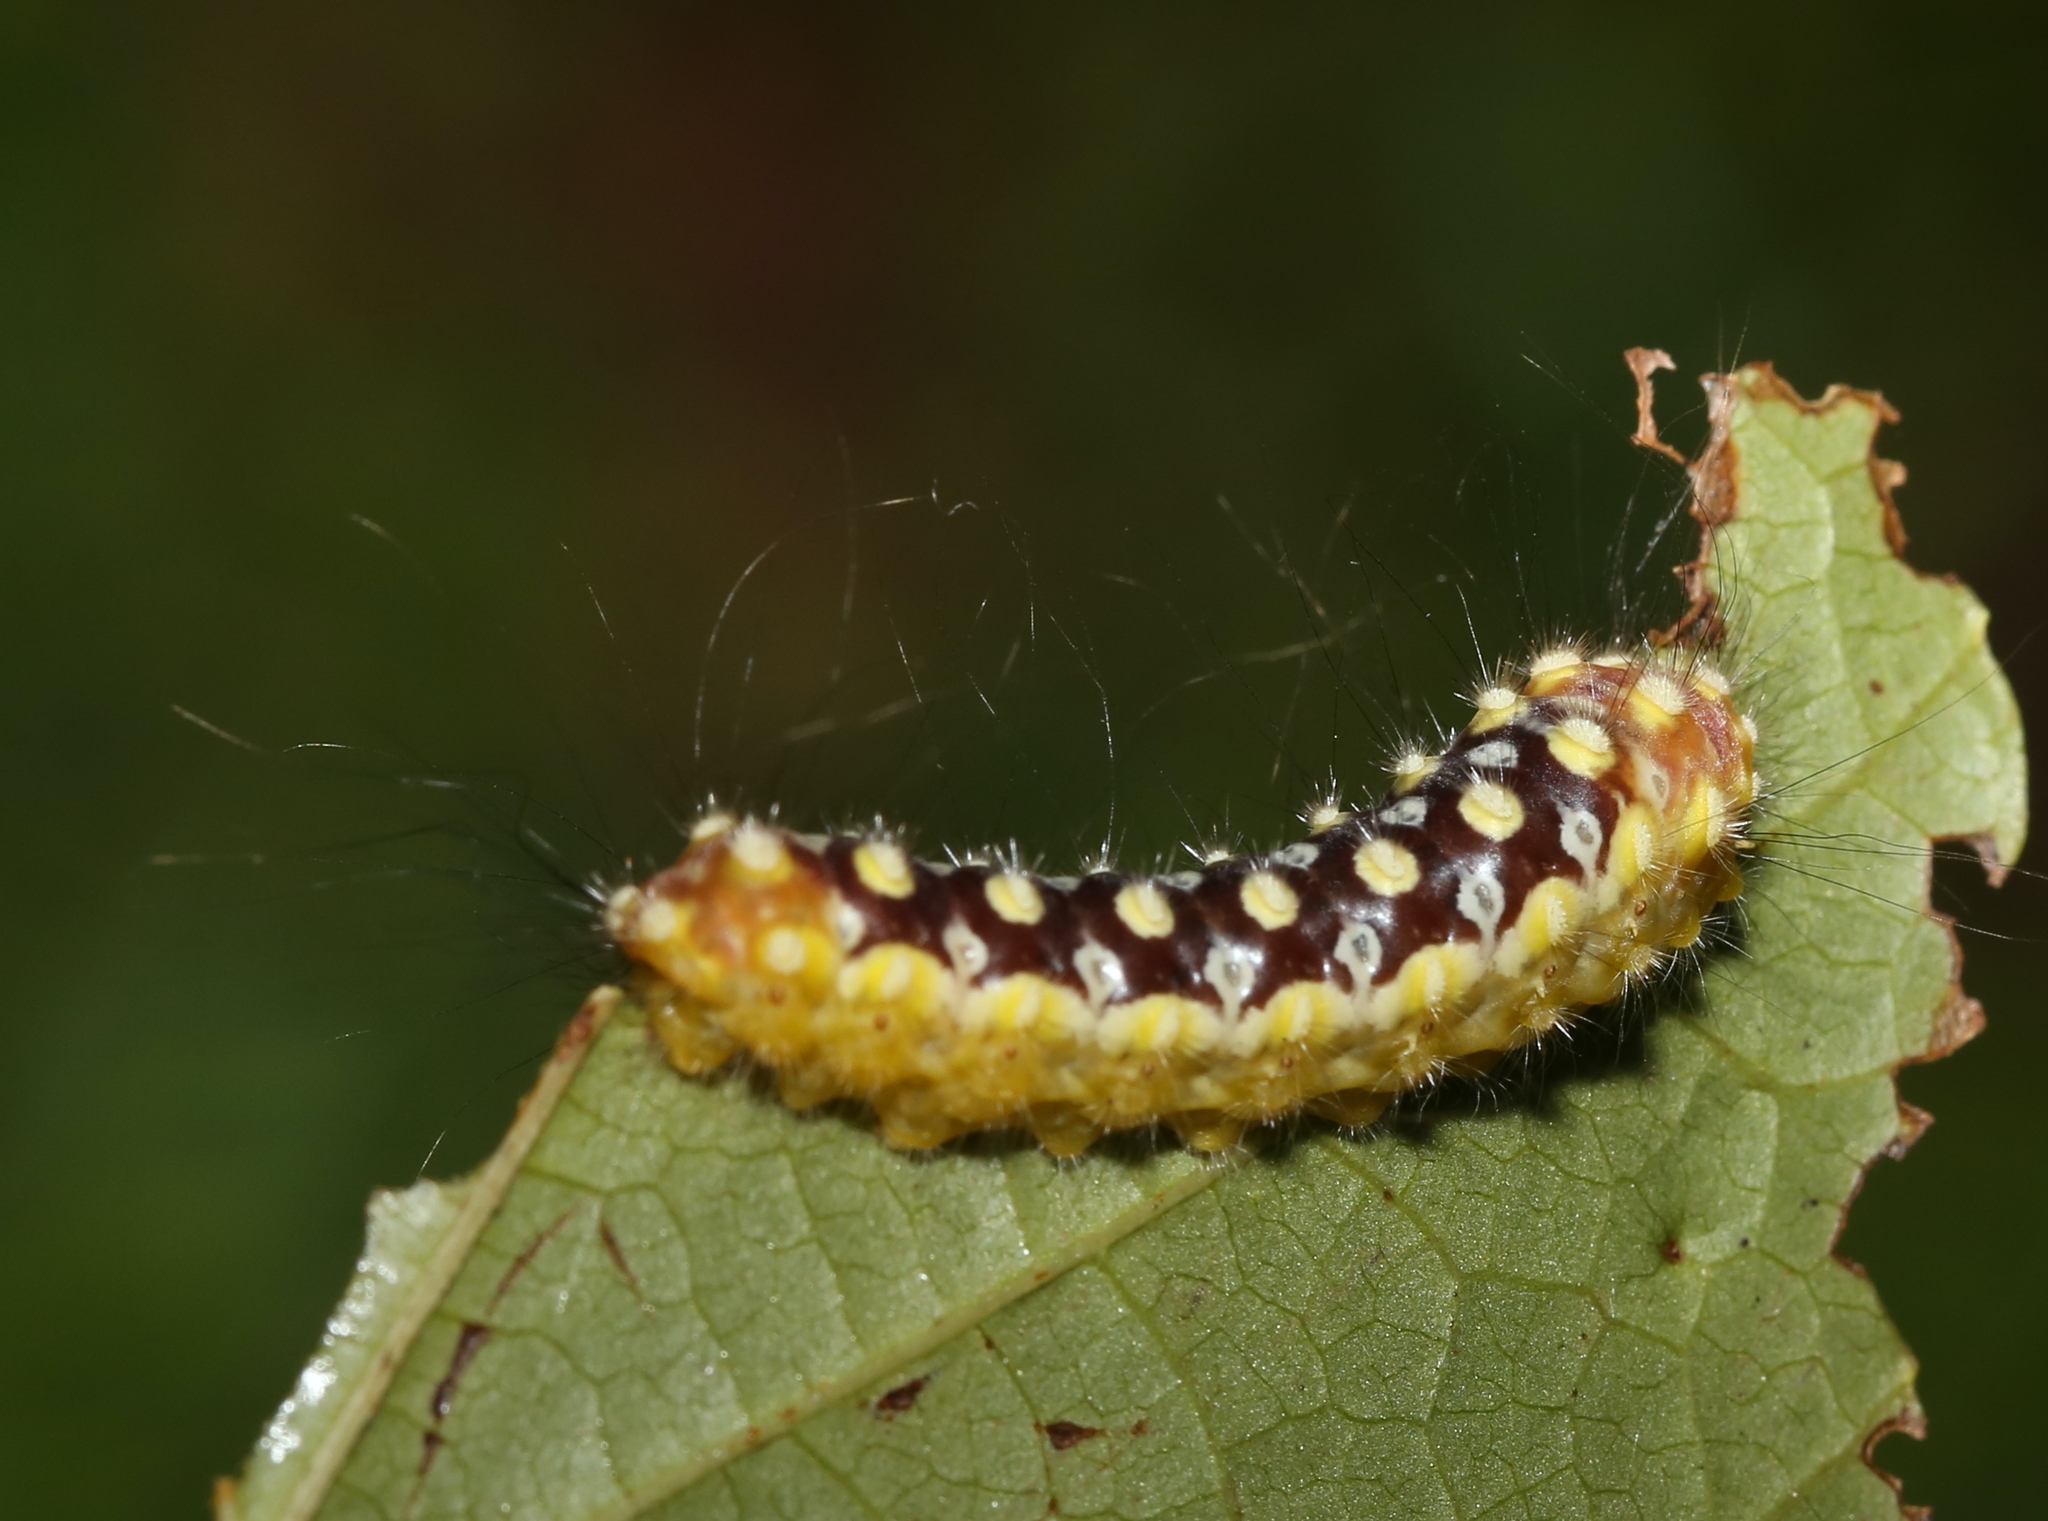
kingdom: Animalia
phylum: Arthropoda
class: Insecta
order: Lepidoptera
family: Megalopygidae
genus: Norape
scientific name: Norape cretata
